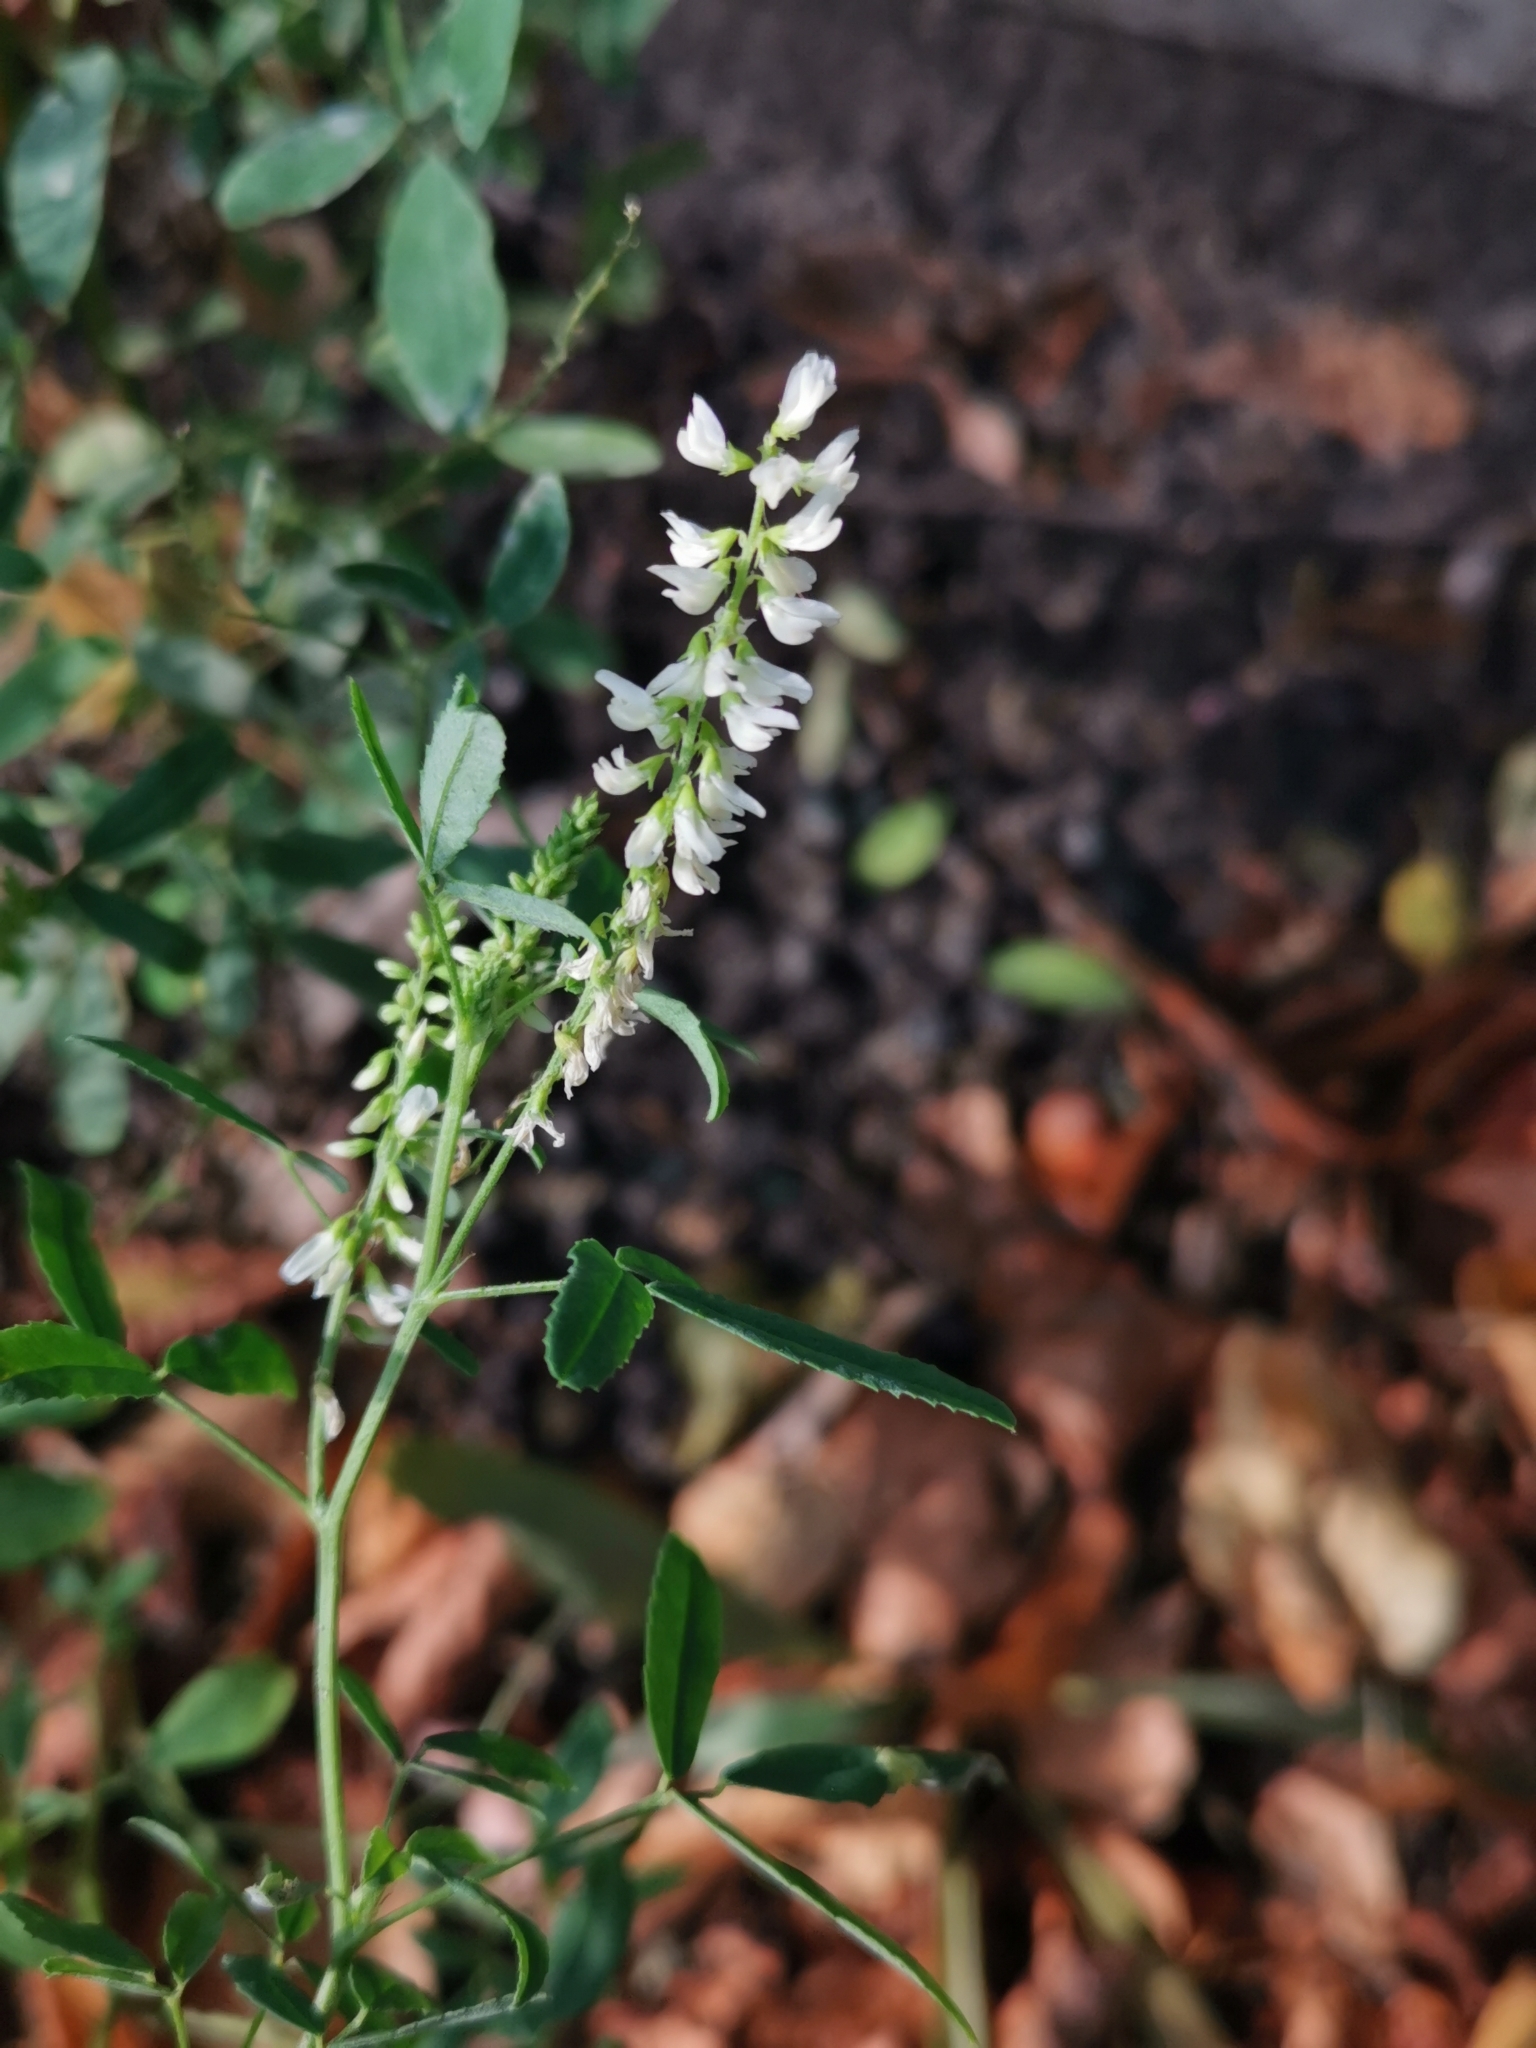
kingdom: Plantae
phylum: Tracheophyta
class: Magnoliopsida
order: Fabales
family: Fabaceae
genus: Melilotus
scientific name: Melilotus albus
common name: White melilot
